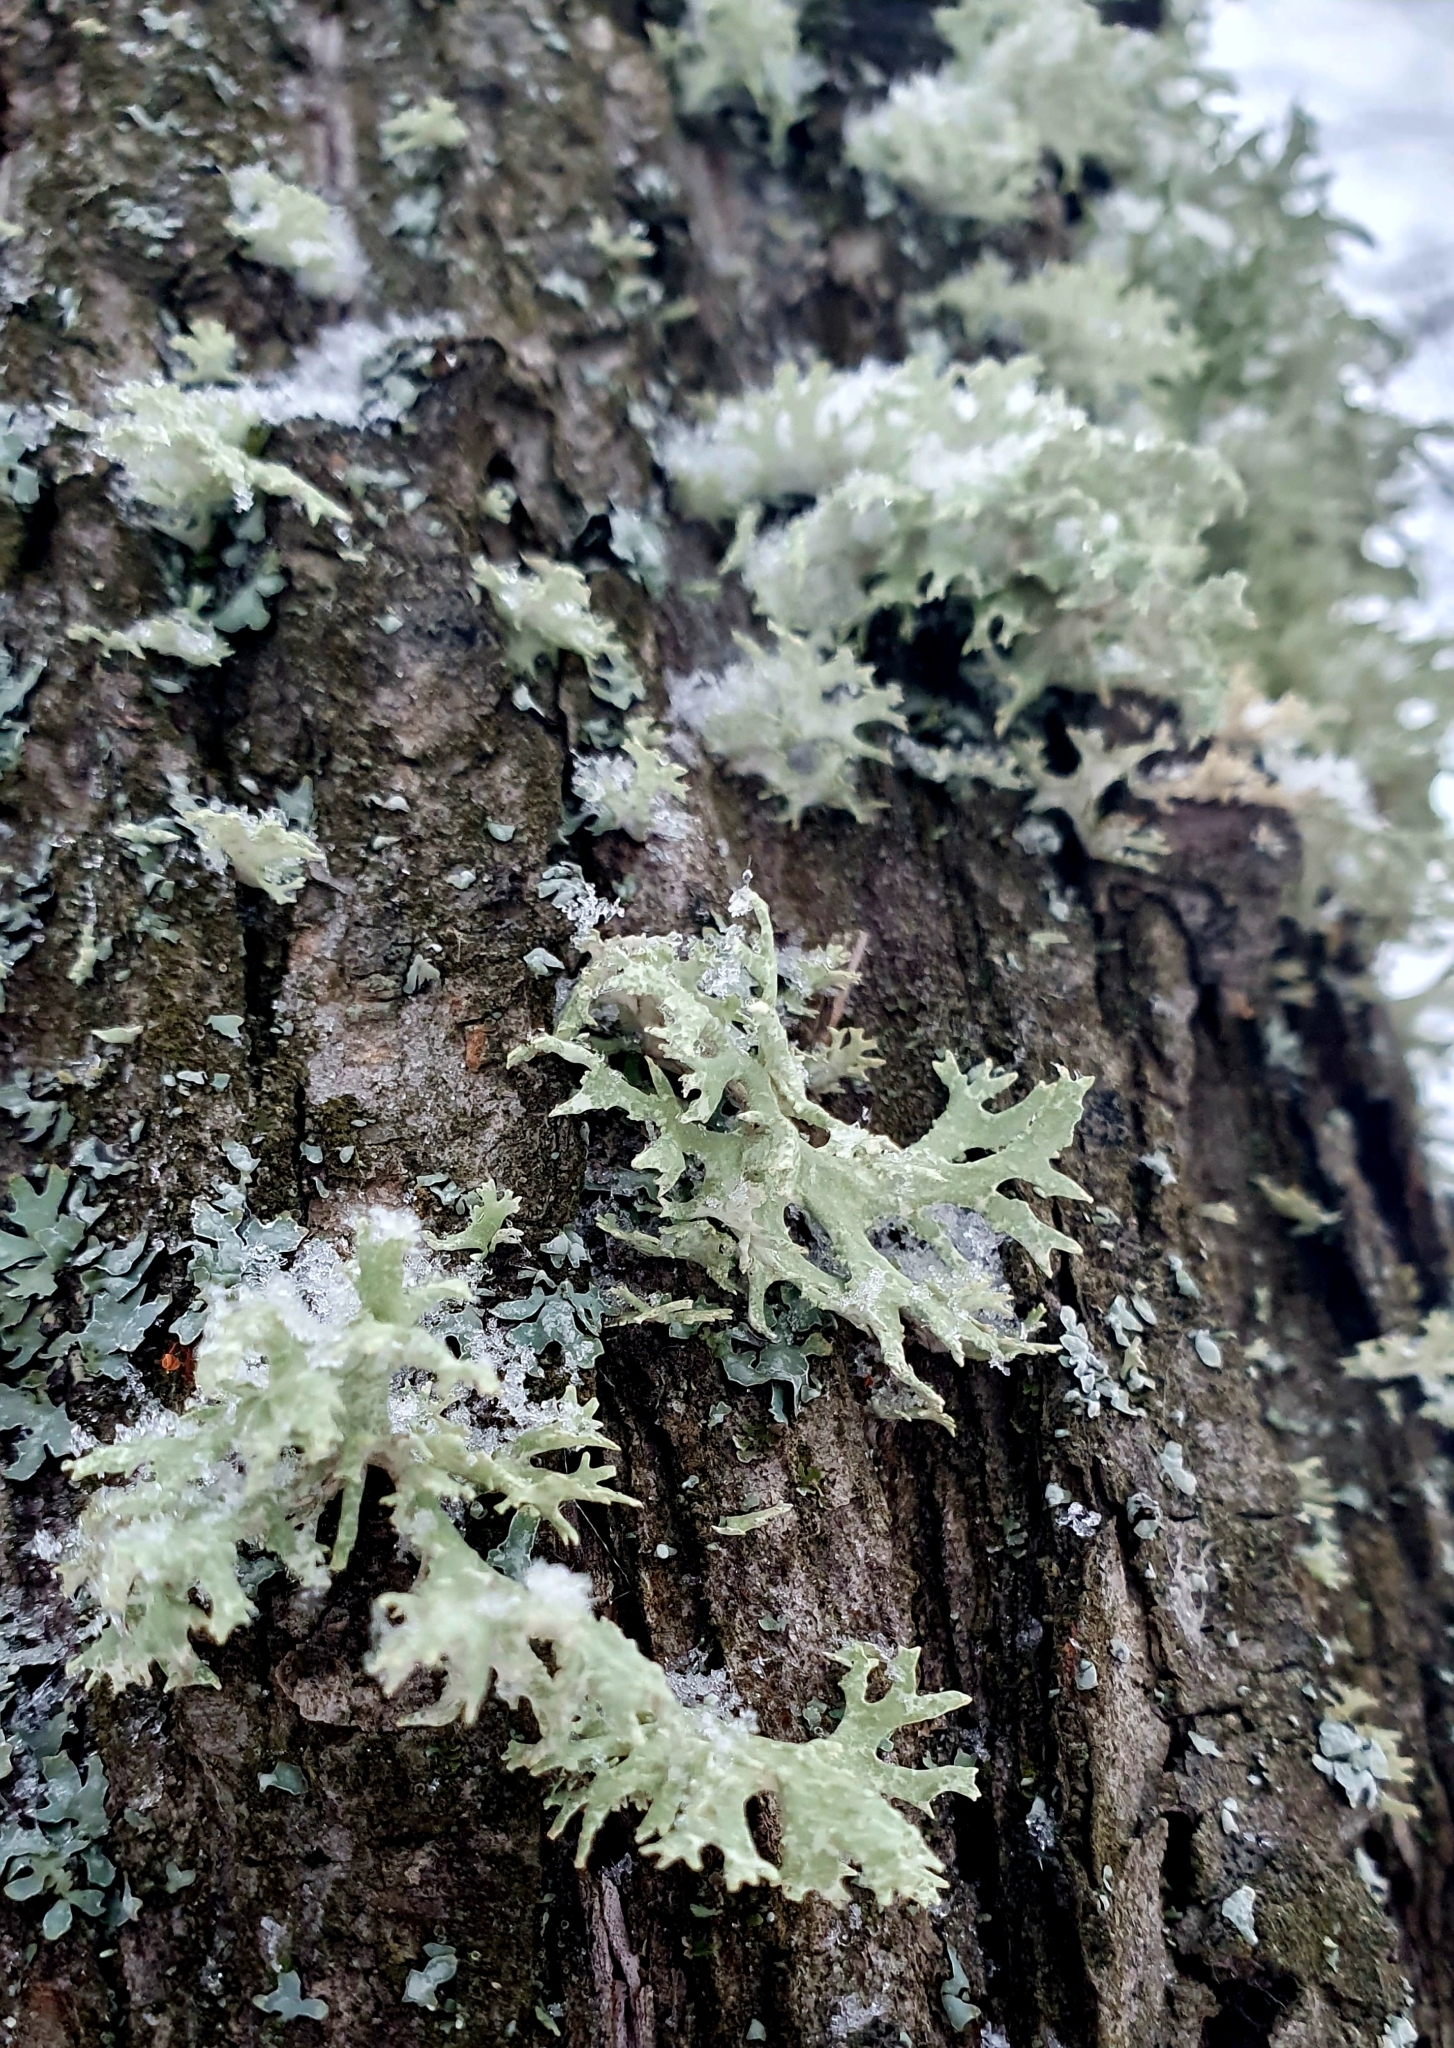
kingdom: Fungi
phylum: Ascomycota
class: Lecanoromycetes
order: Lecanorales
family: Parmeliaceae
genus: Evernia
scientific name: Evernia prunastri
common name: Oak moss
